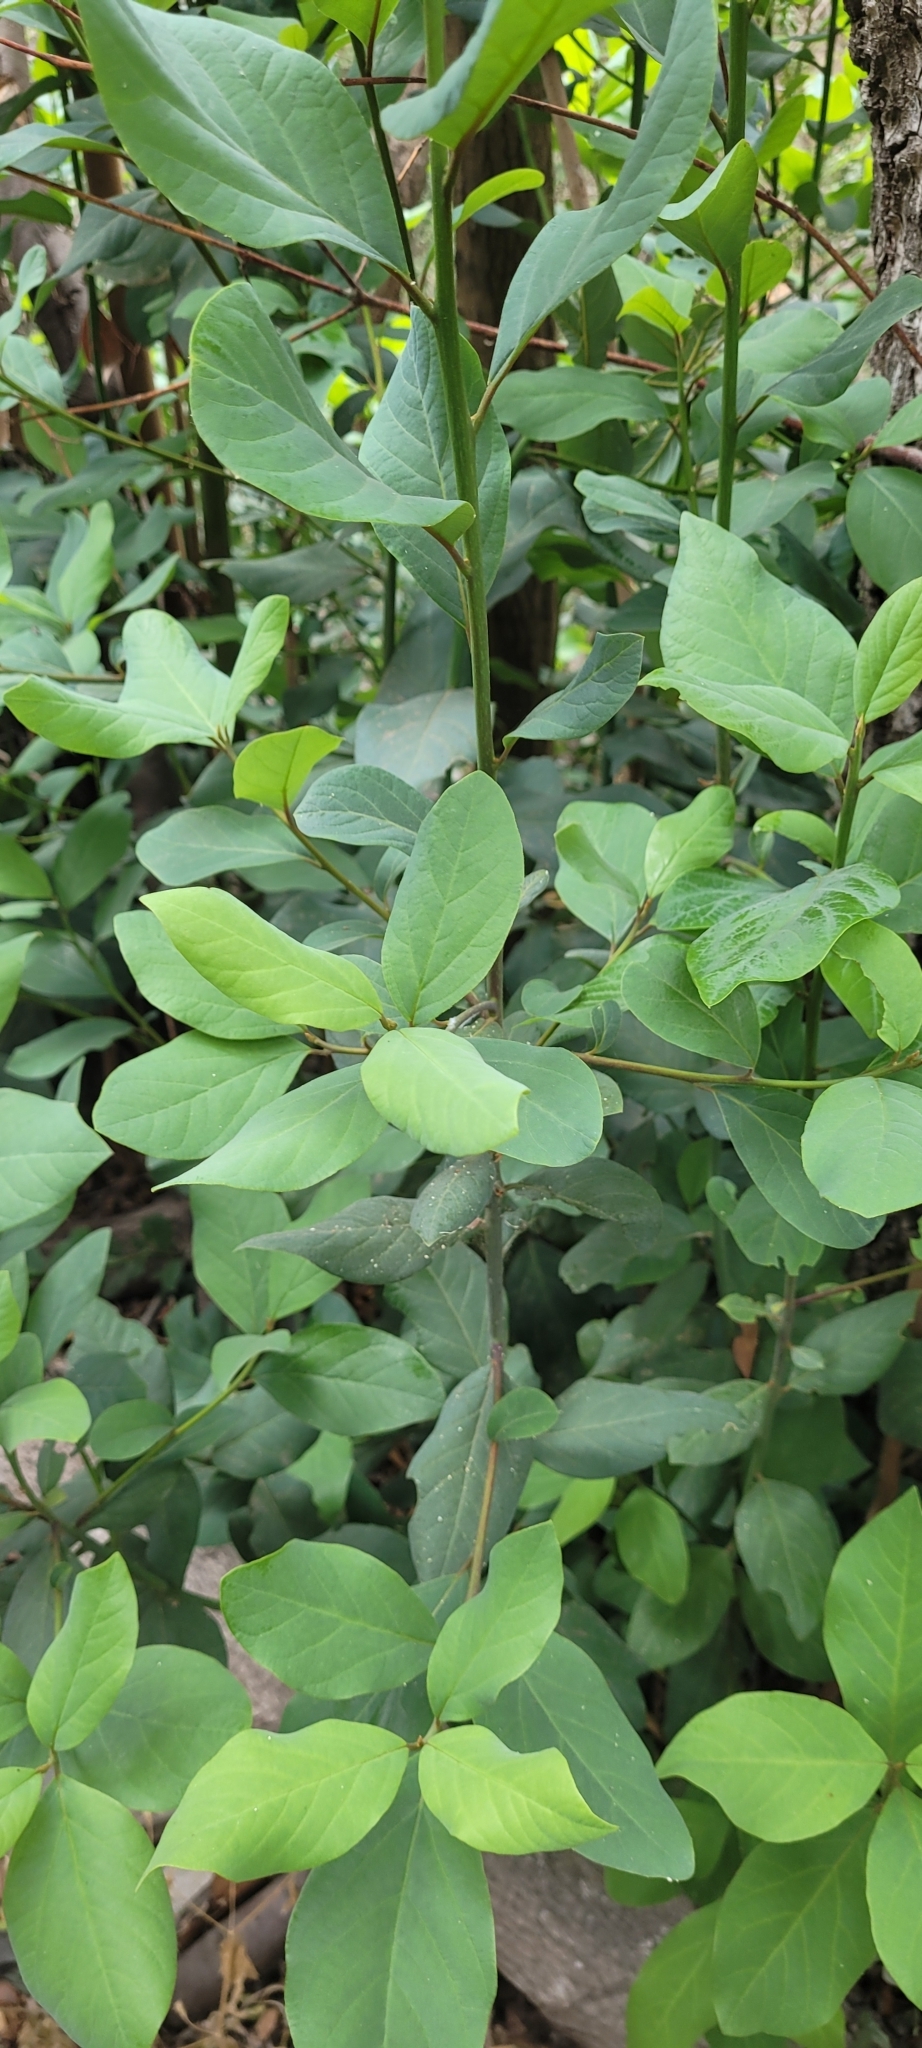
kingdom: Plantae
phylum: Tracheophyta
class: Magnoliopsida
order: Laurales
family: Lauraceae
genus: Persea
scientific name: Persea lingue
